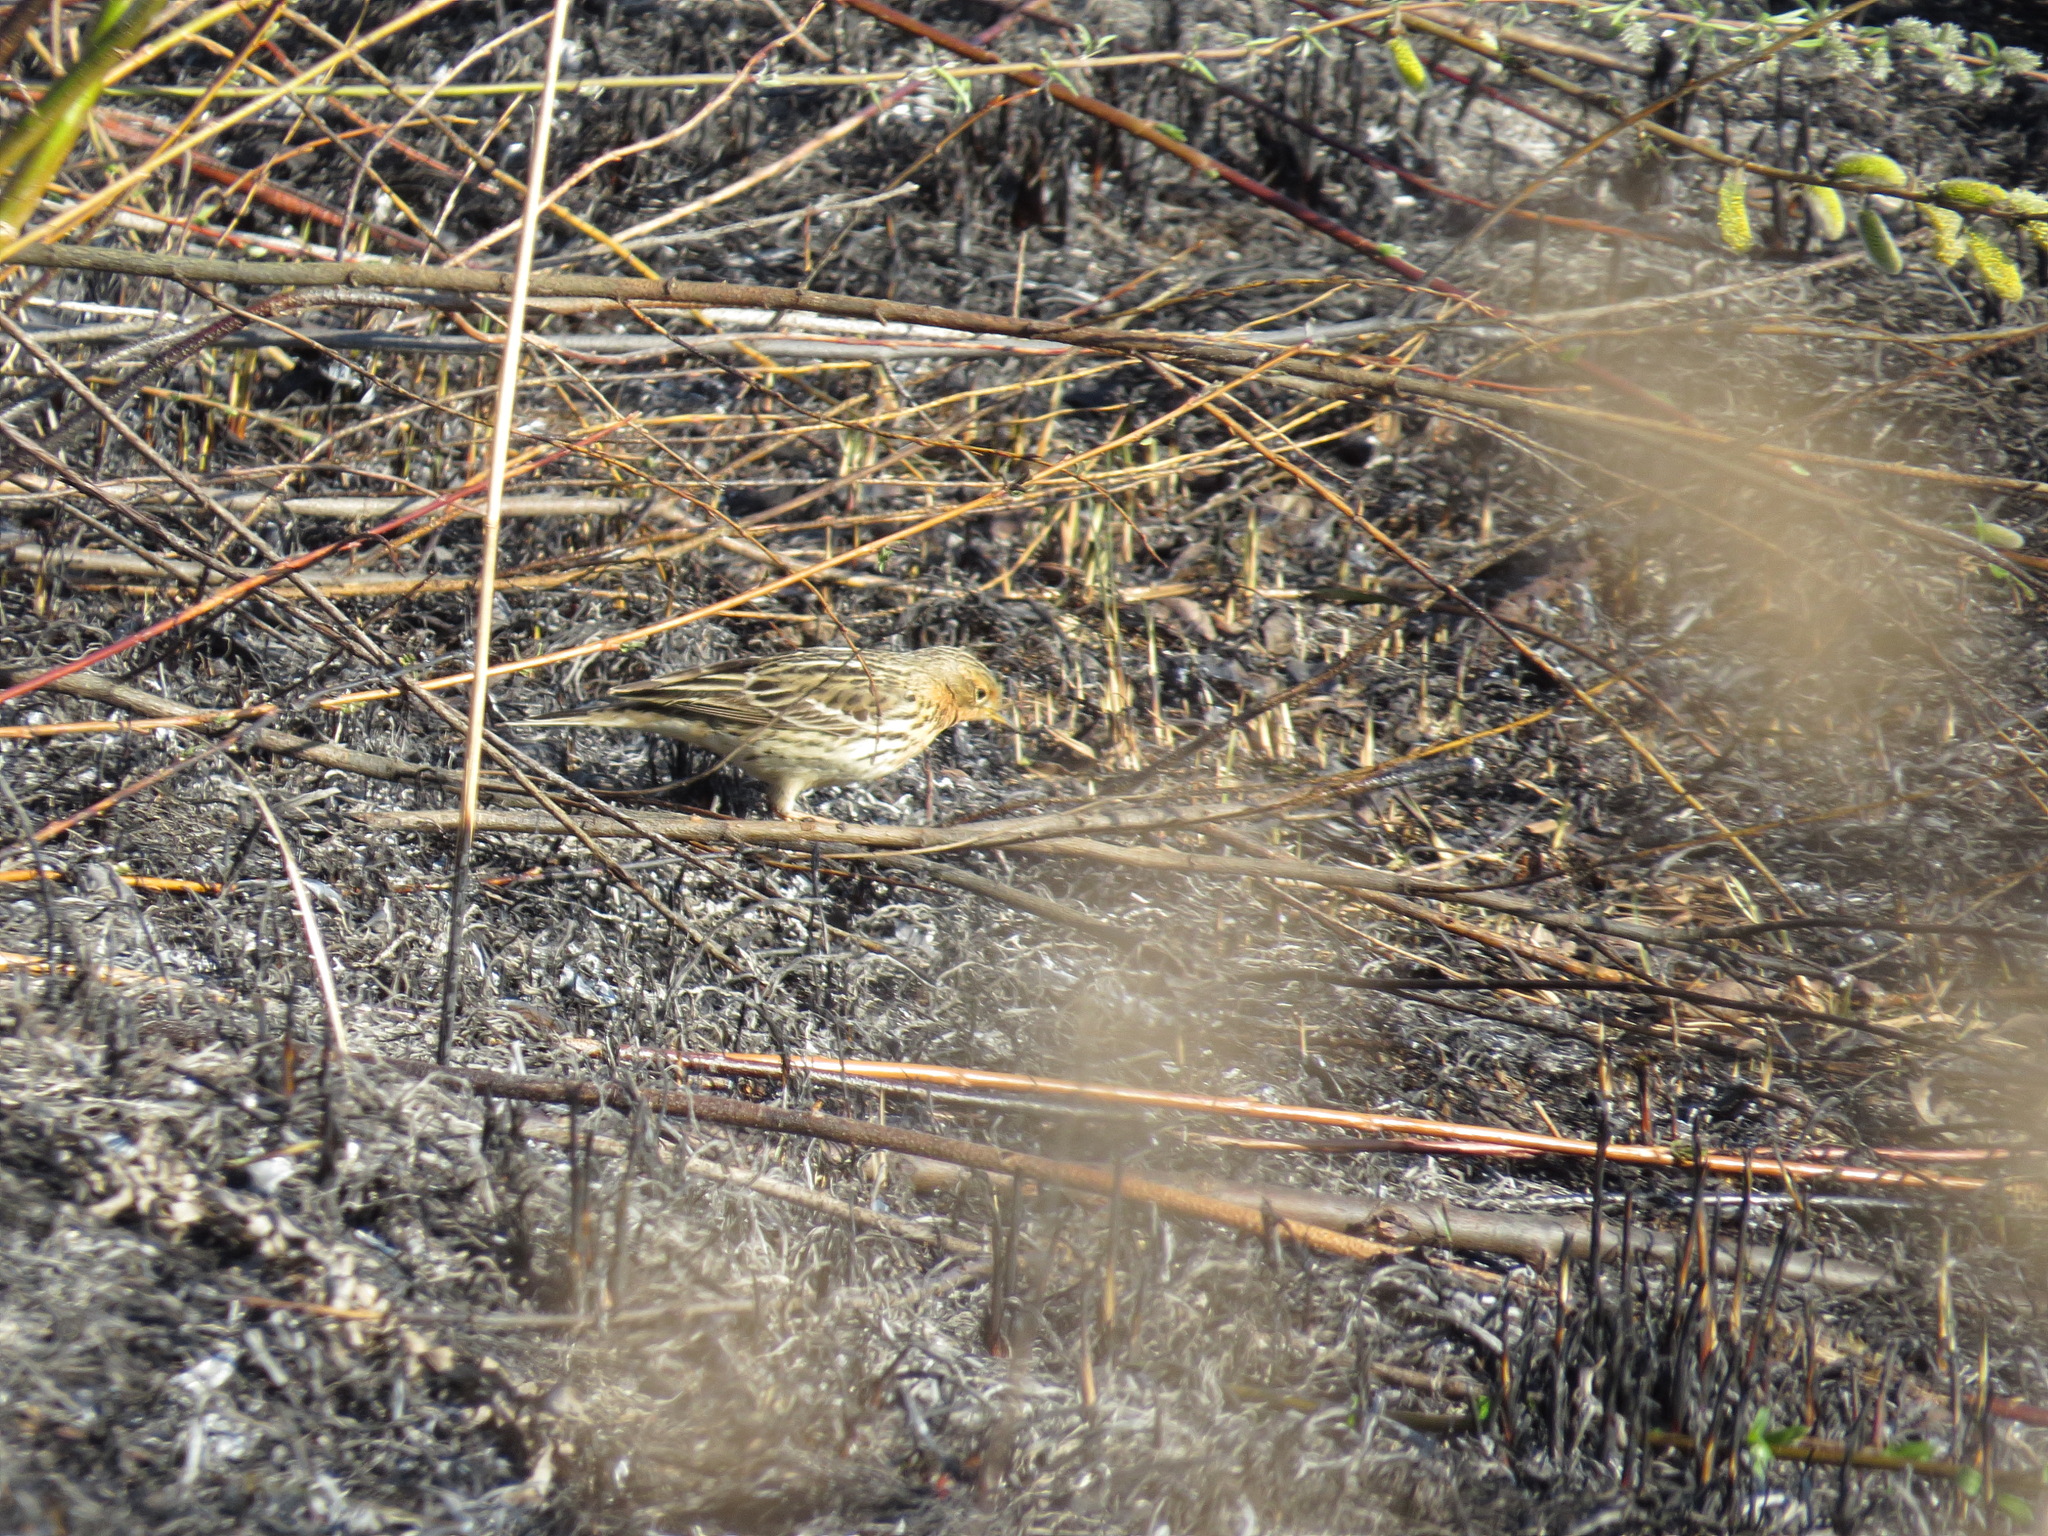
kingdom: Animalia
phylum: Chordata
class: Aves
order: Passeriformes
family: Motacillidae
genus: Anthus
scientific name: Anthus cervinus
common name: Red-throated pipit
